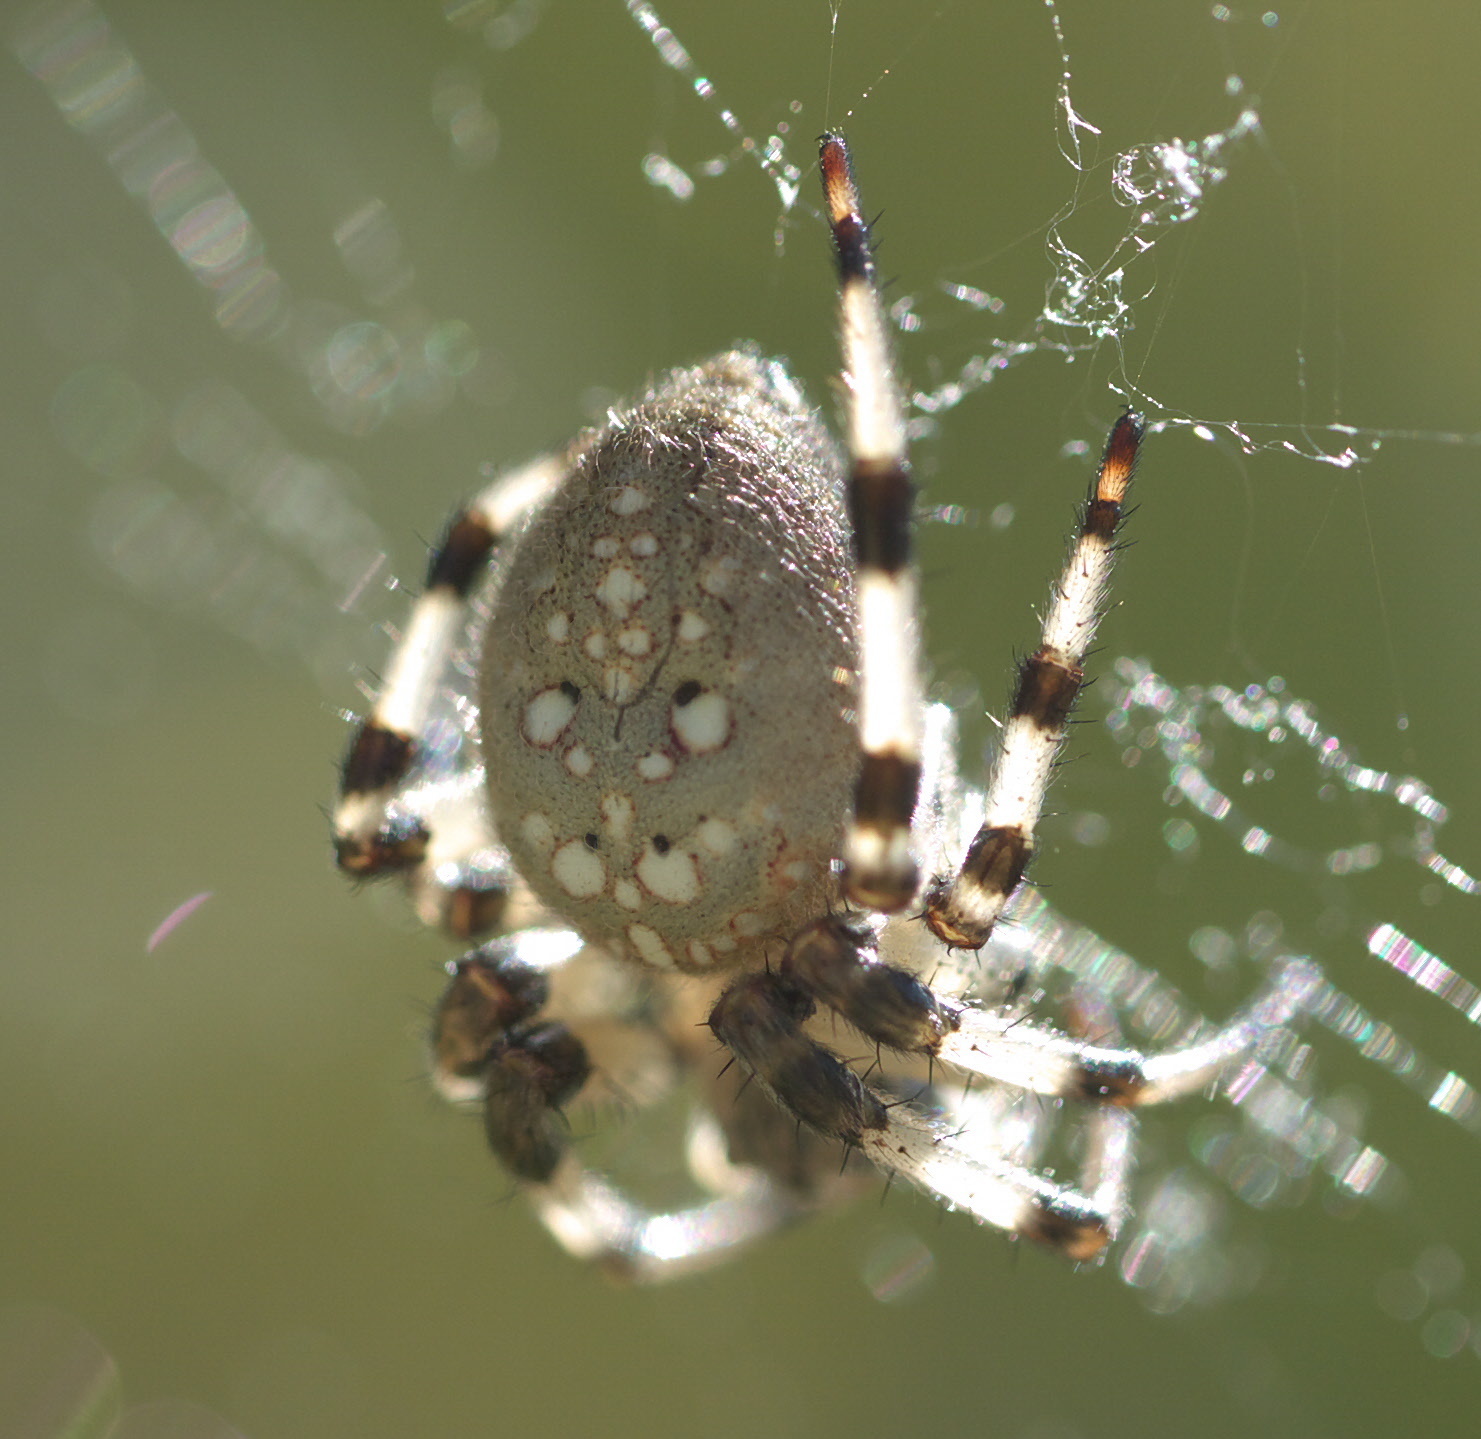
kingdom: Animalia
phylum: Arthropoda
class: Arachnida
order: Araneae
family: Araneidae
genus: Araneus
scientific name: Araneus trifolium
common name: Shamrock orbweaver
